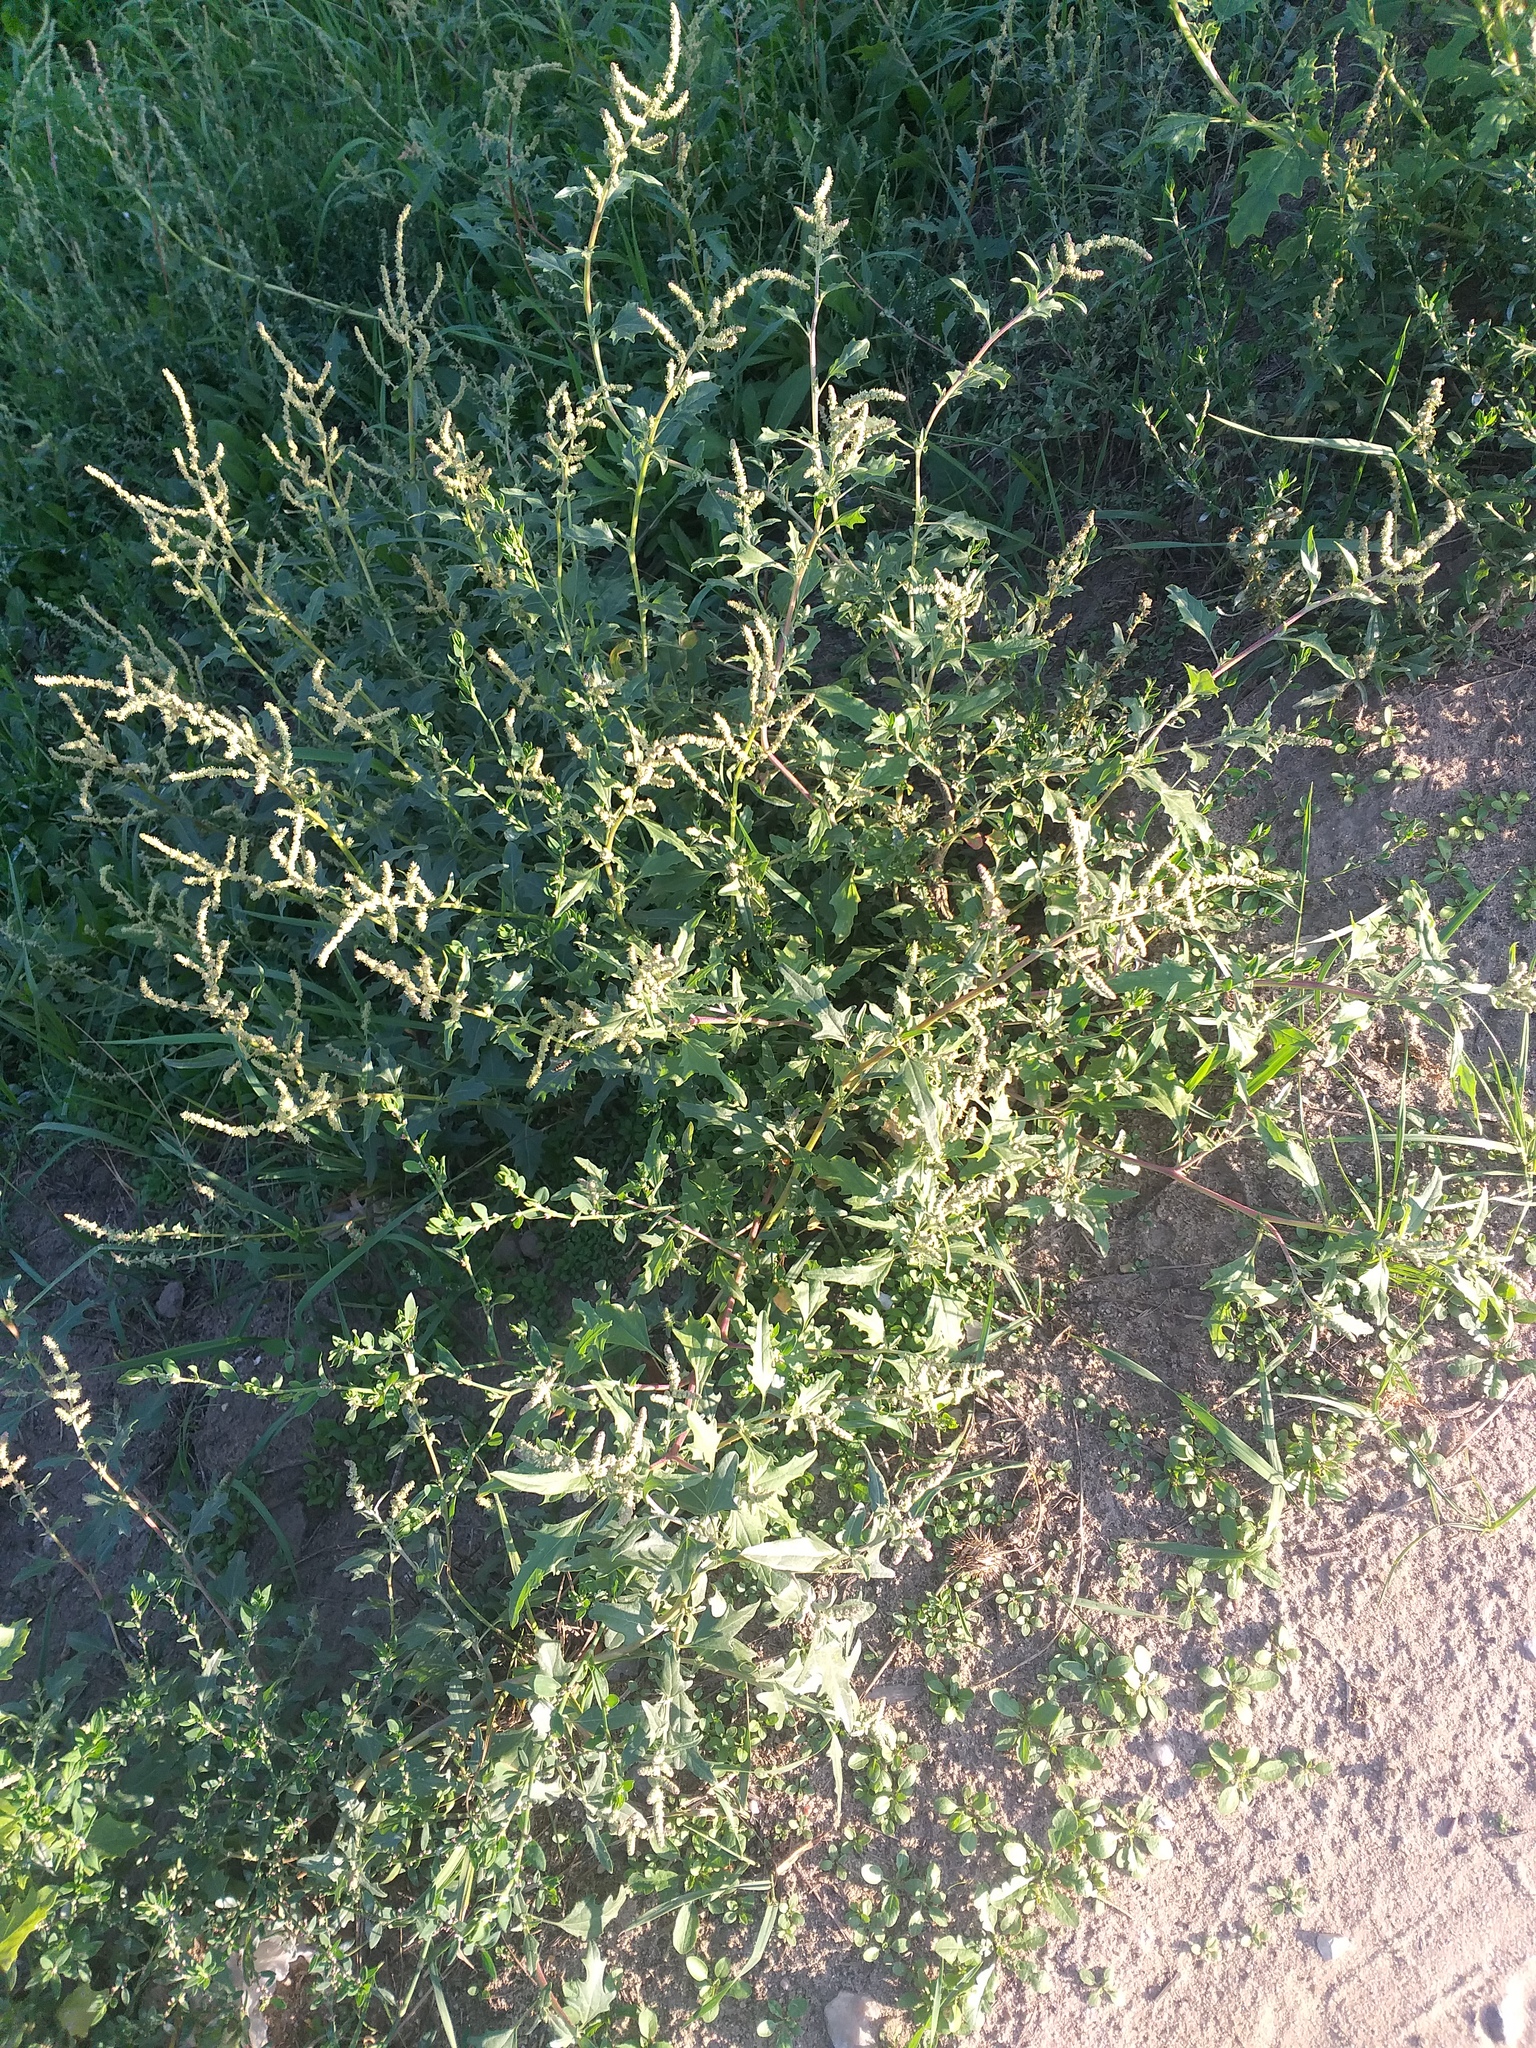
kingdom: Plantae
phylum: Tracheophyta
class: Magnoliopsida
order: Caryophyllales
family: Amaranthaceae
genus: Atriplex
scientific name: Atriplex tatarica
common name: Tatarian orache
